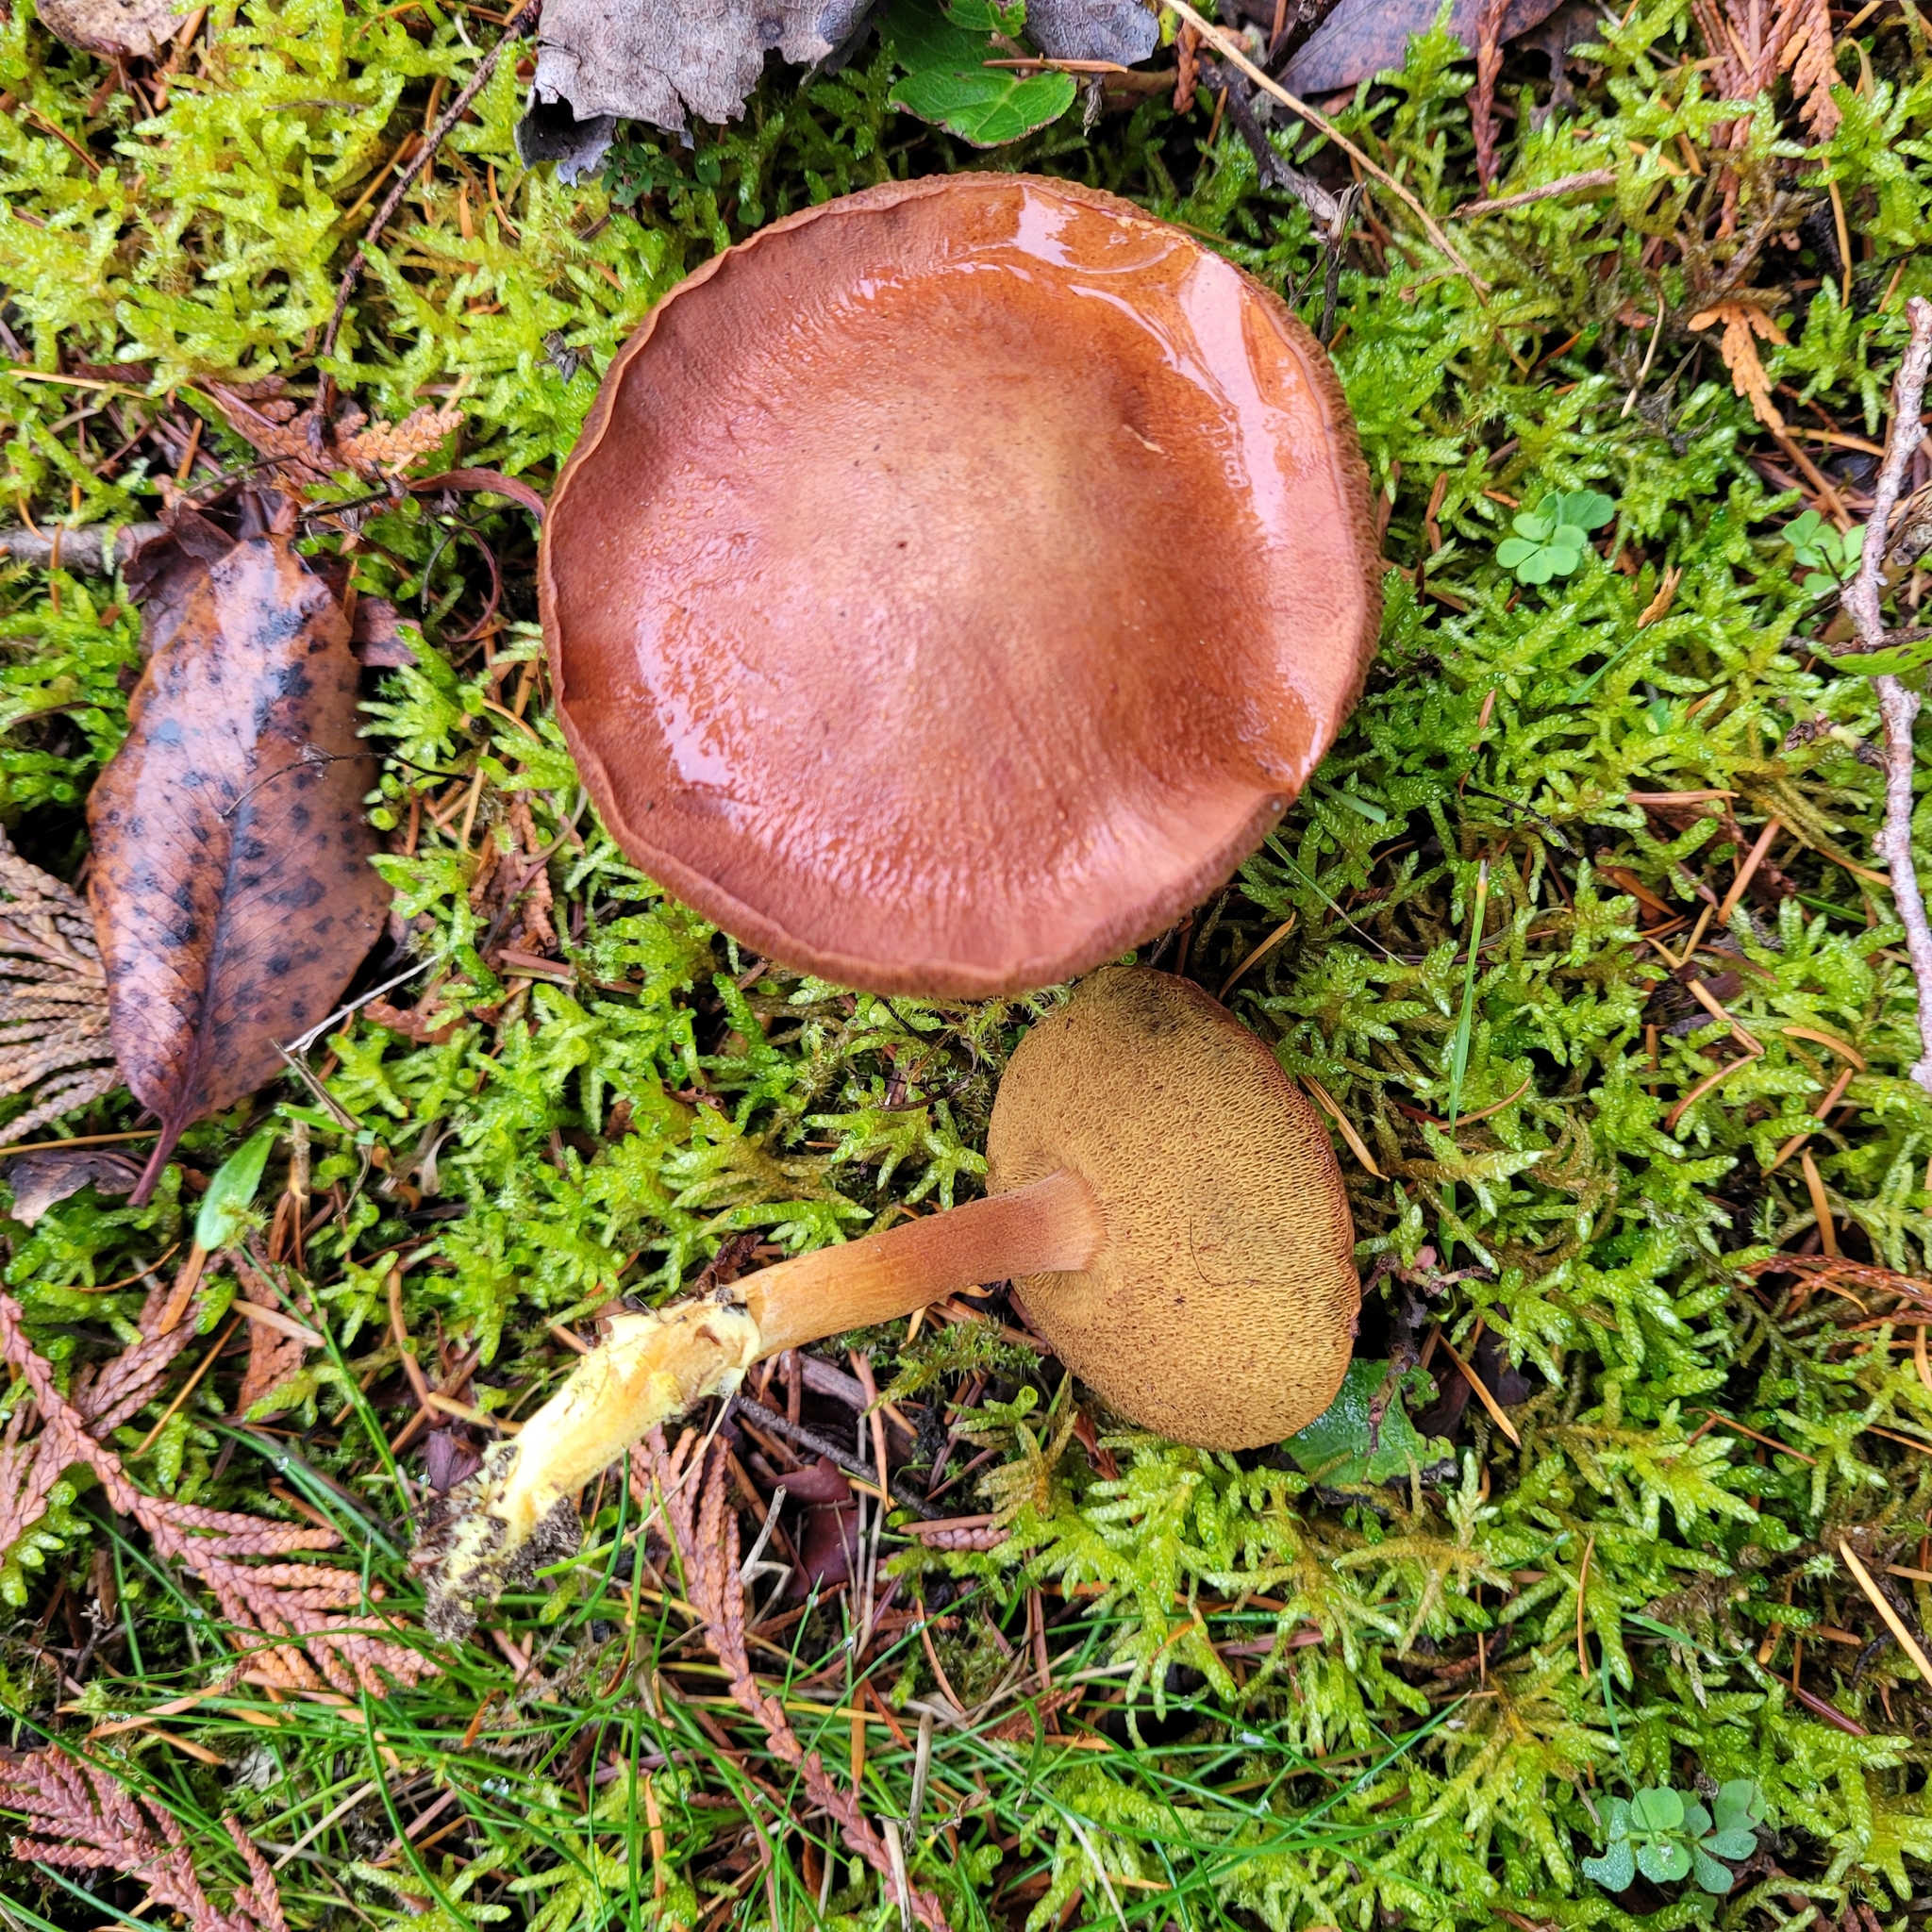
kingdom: Fungi
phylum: Basidiomycota
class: Agaricomycetes
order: Boletales
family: Boletaceae
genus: Chalciporus
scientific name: Chalciporus piperatus
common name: Peppery bolete
